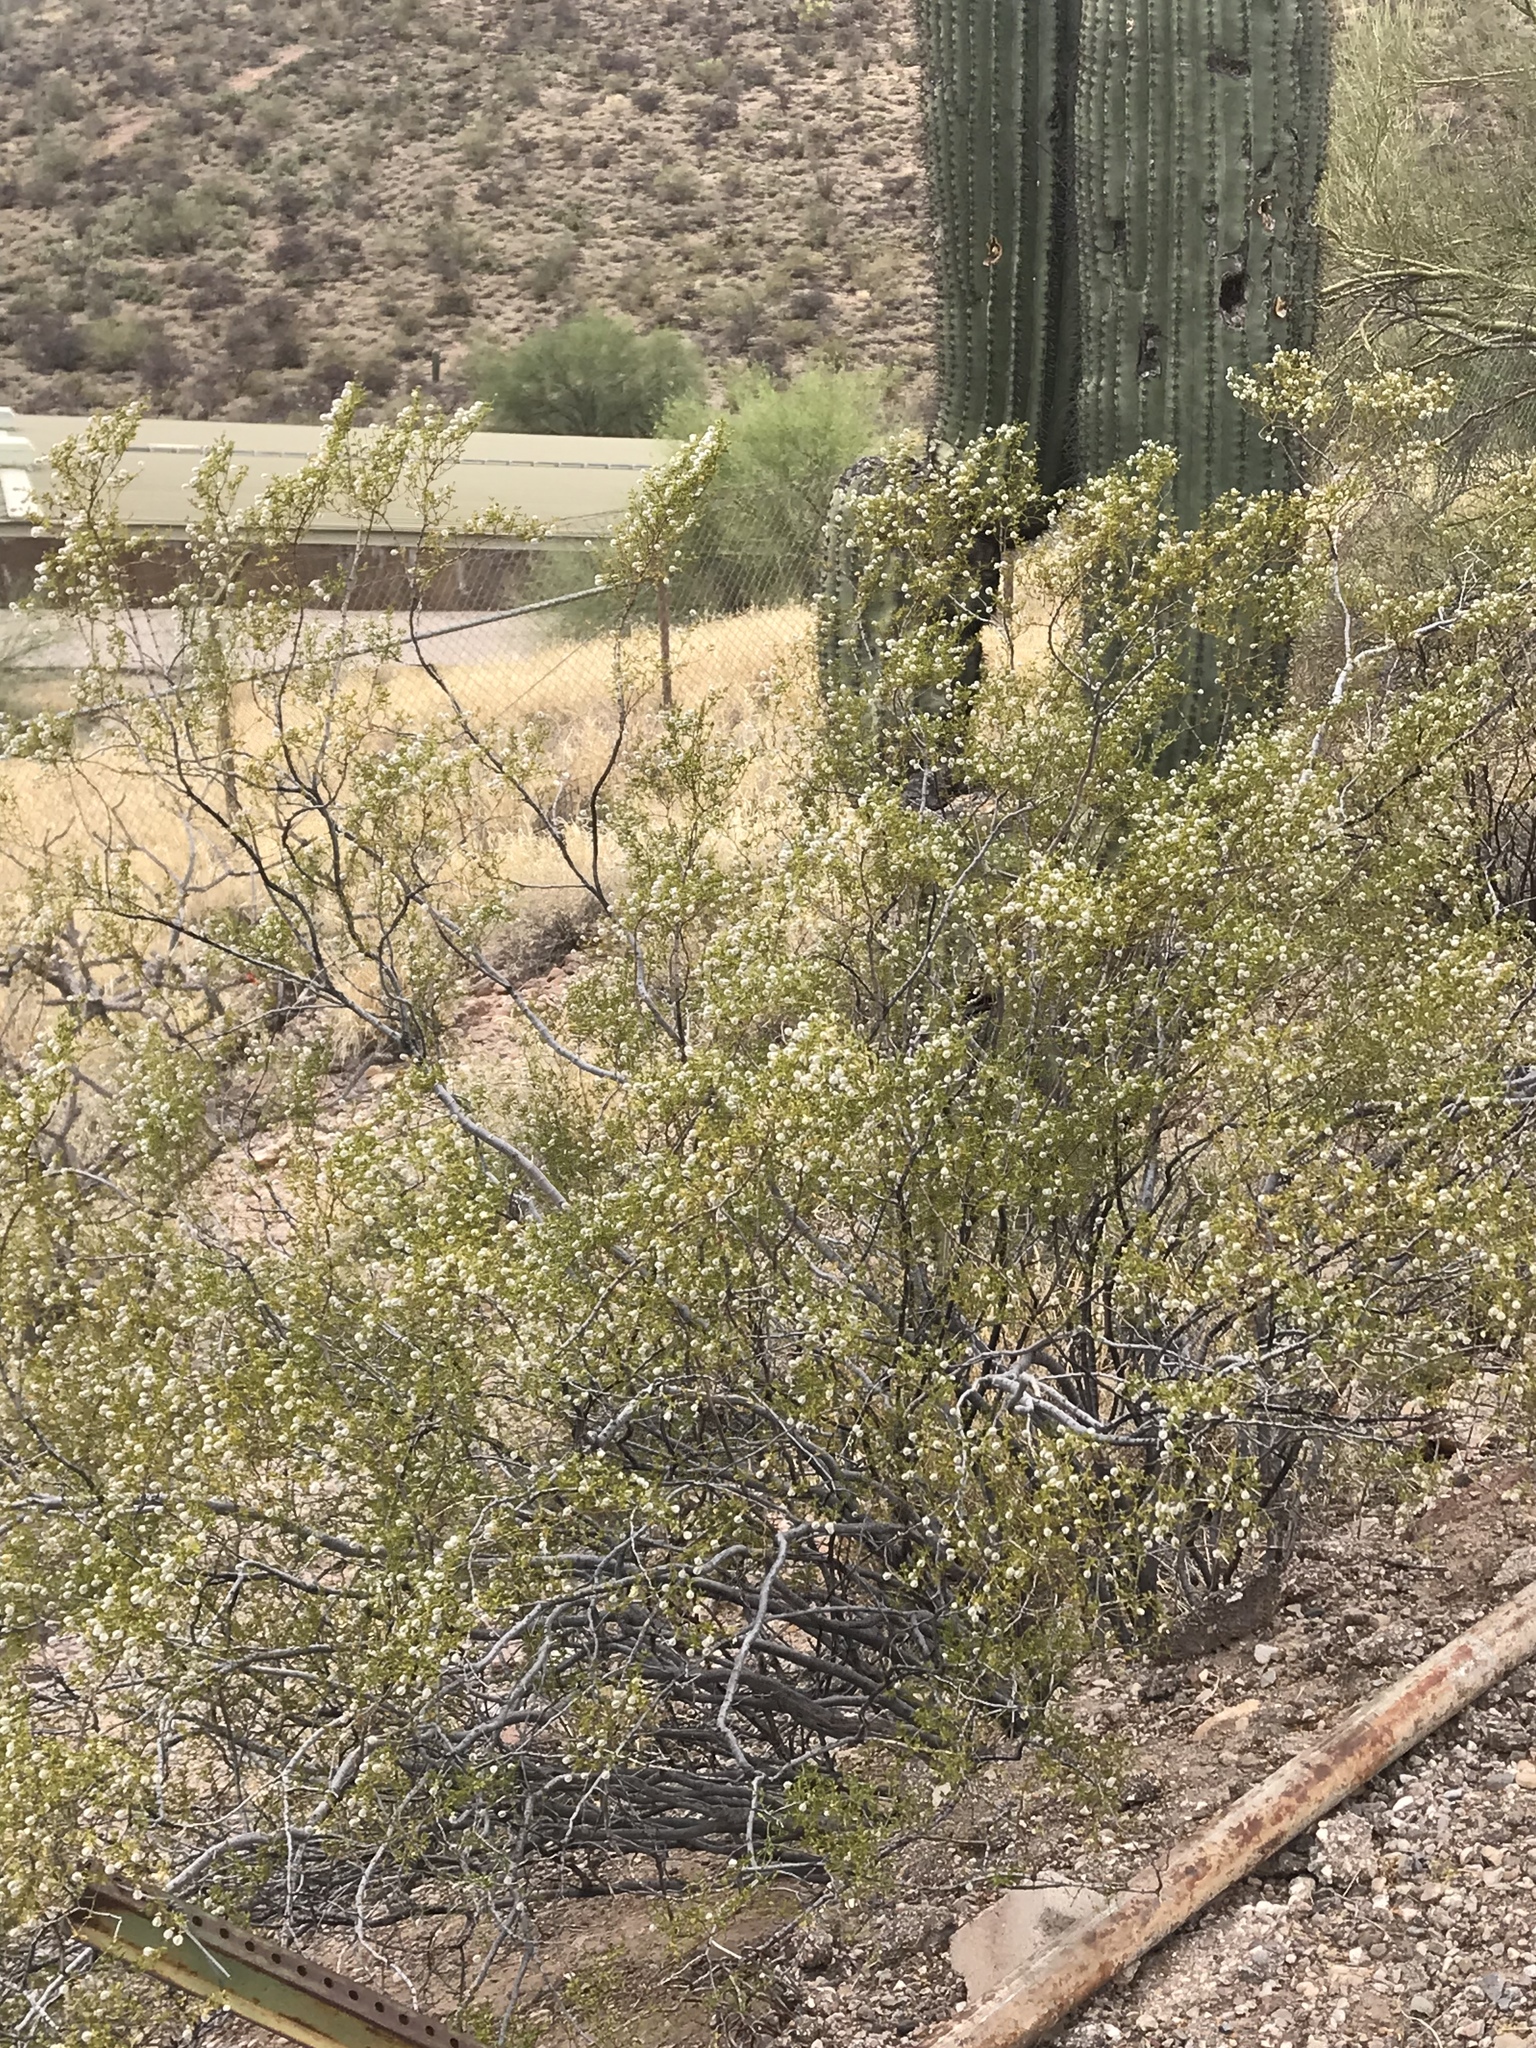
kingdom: Plantae
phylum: Tracheophyta
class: Magnoliopsida
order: Zygophyllales
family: Zygophyllaceae
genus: Larrea
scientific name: Larrea tridentata
